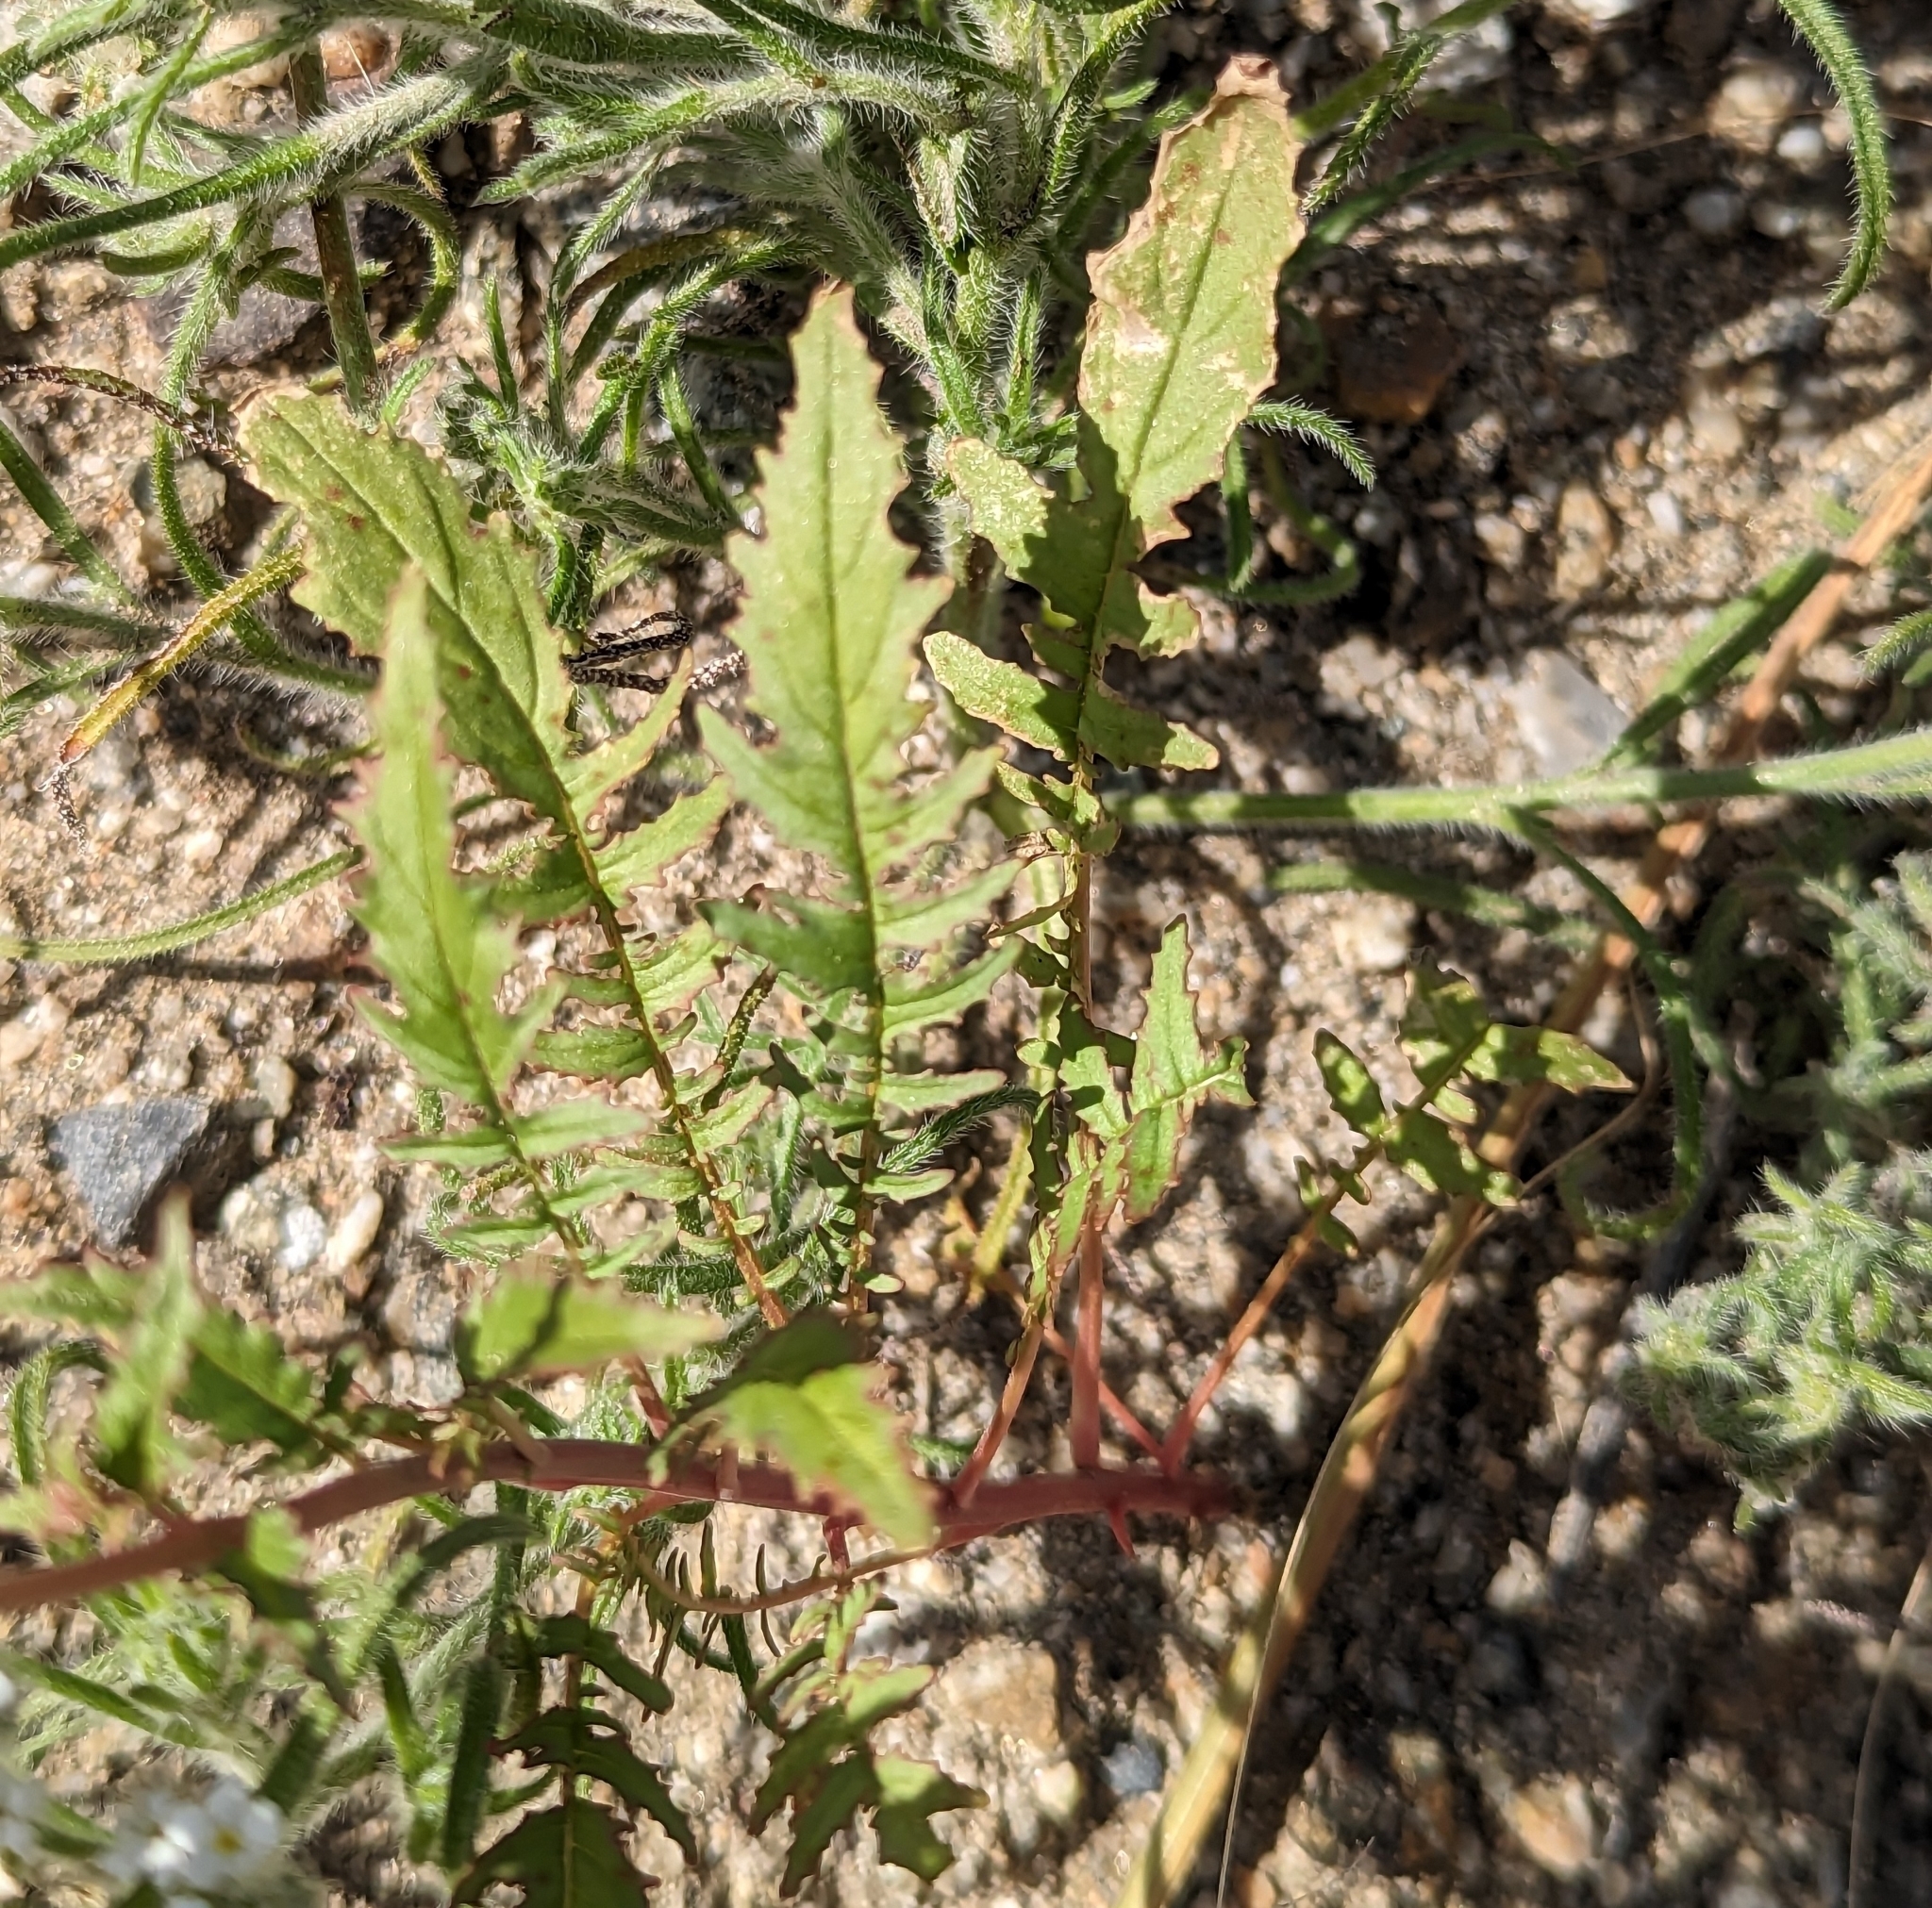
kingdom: Plantae
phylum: Tracheophyta
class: Magnoliopsida
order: Myrtales
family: Onagraceae
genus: Chylismia
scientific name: Chylismia claviformis
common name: Browneyes
